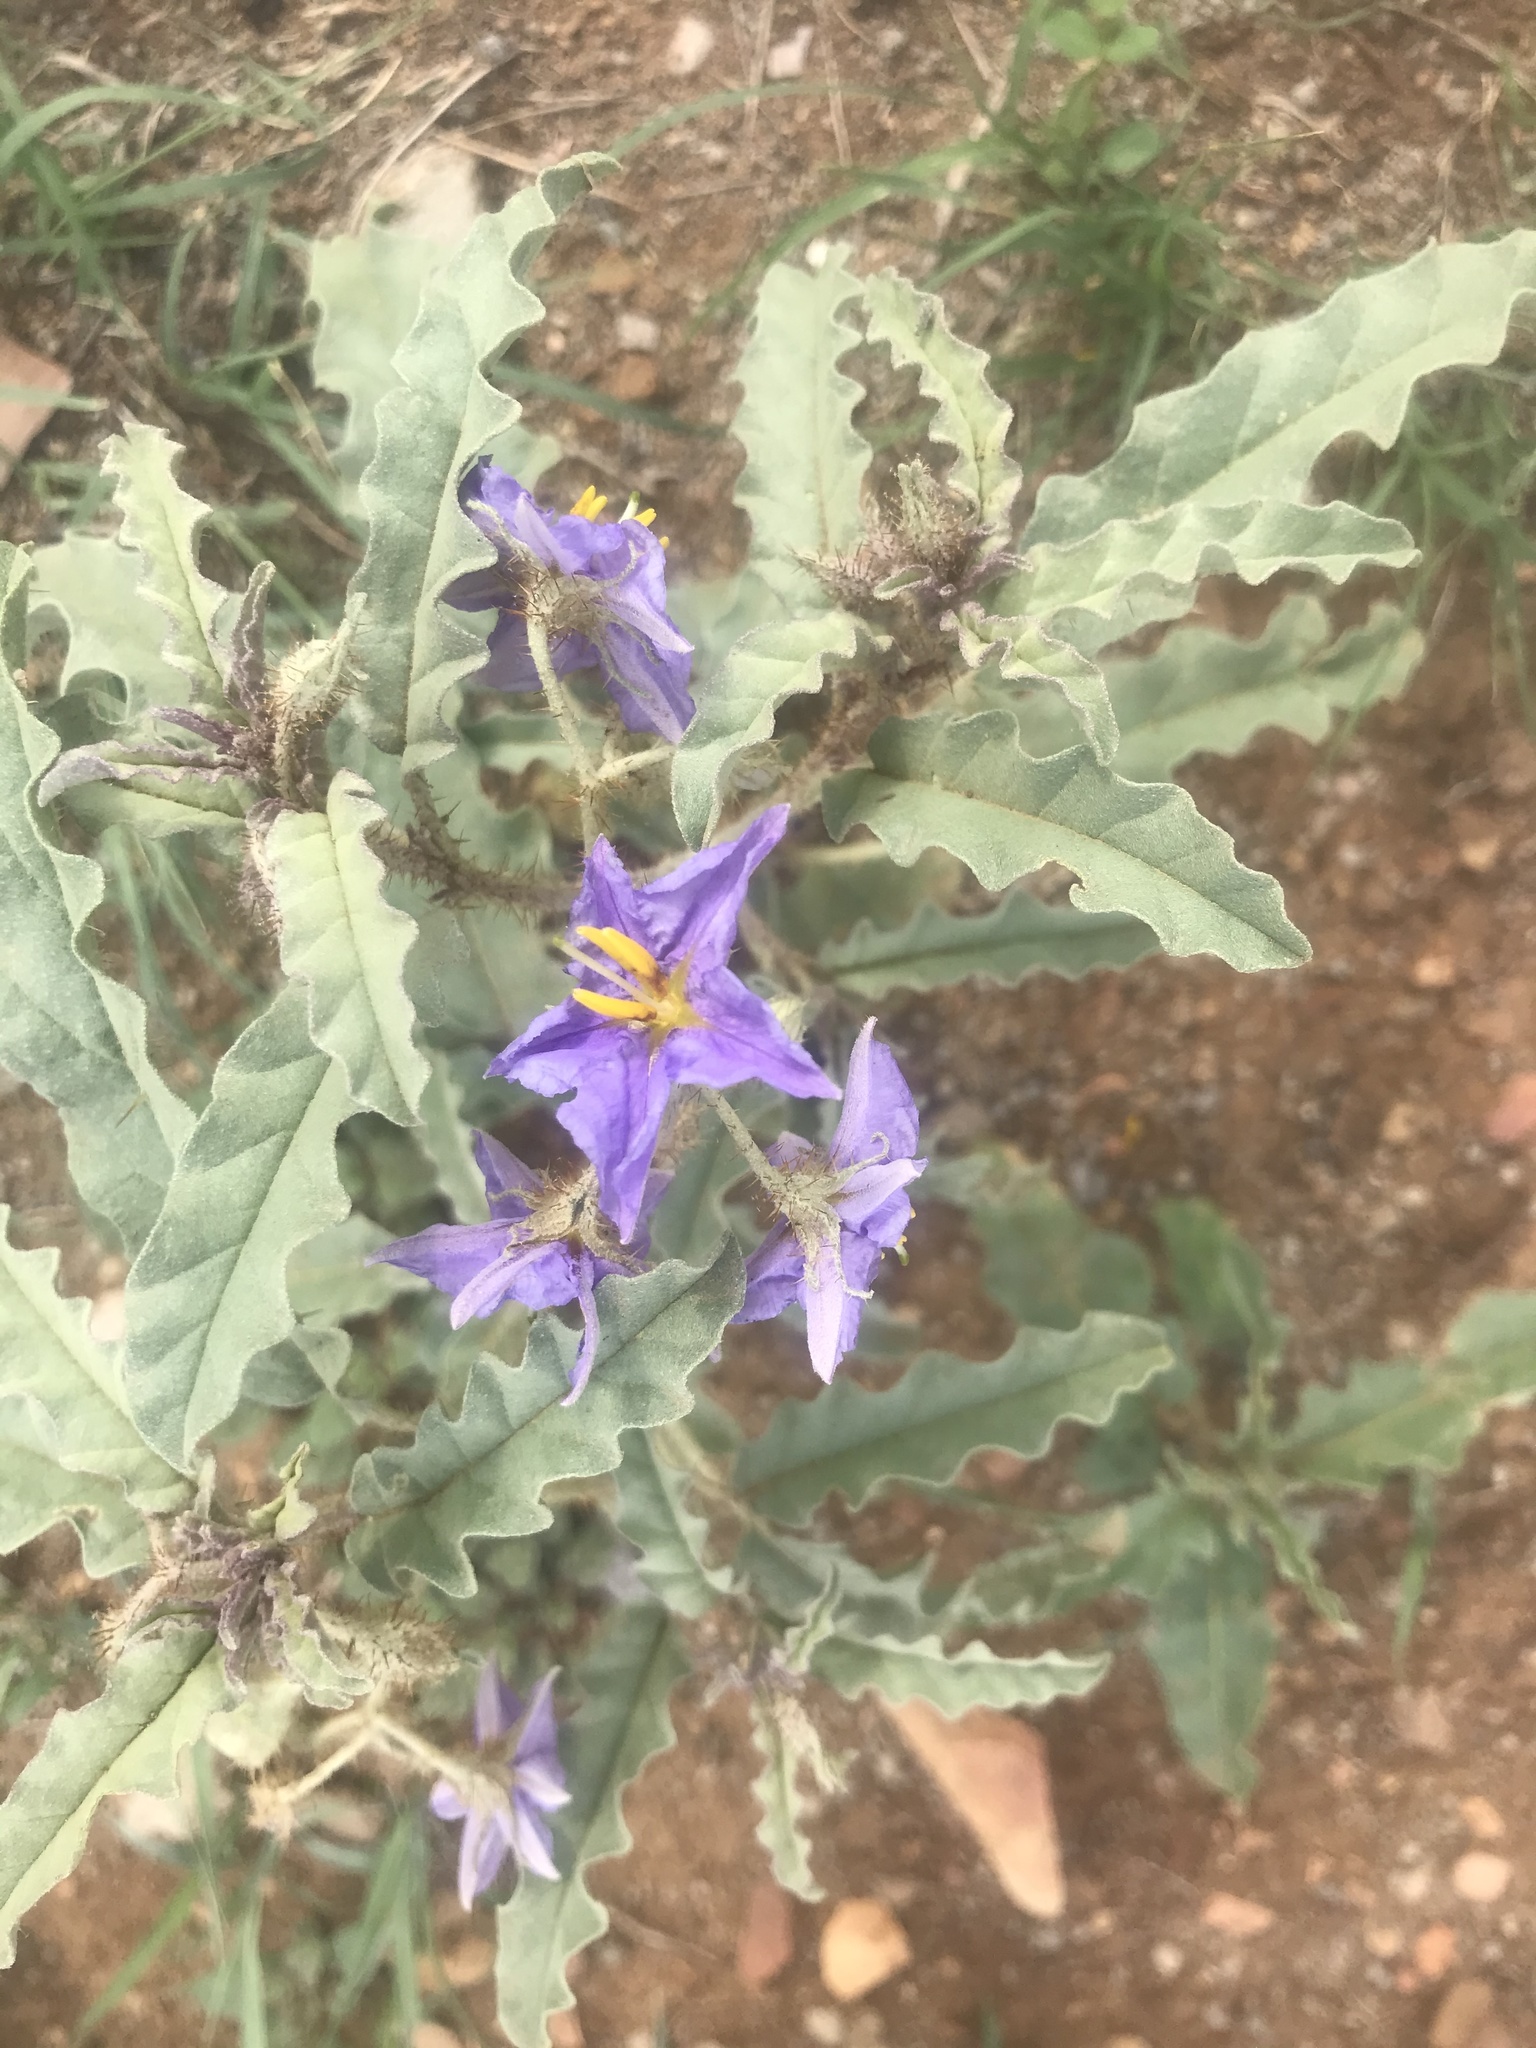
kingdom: Plantae
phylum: Tracheophyta
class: Magnoliopsida
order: Solanales
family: Solanaceae
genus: Solanum
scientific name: Solanum elaeagnifolium
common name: Silverleaf nightshade
